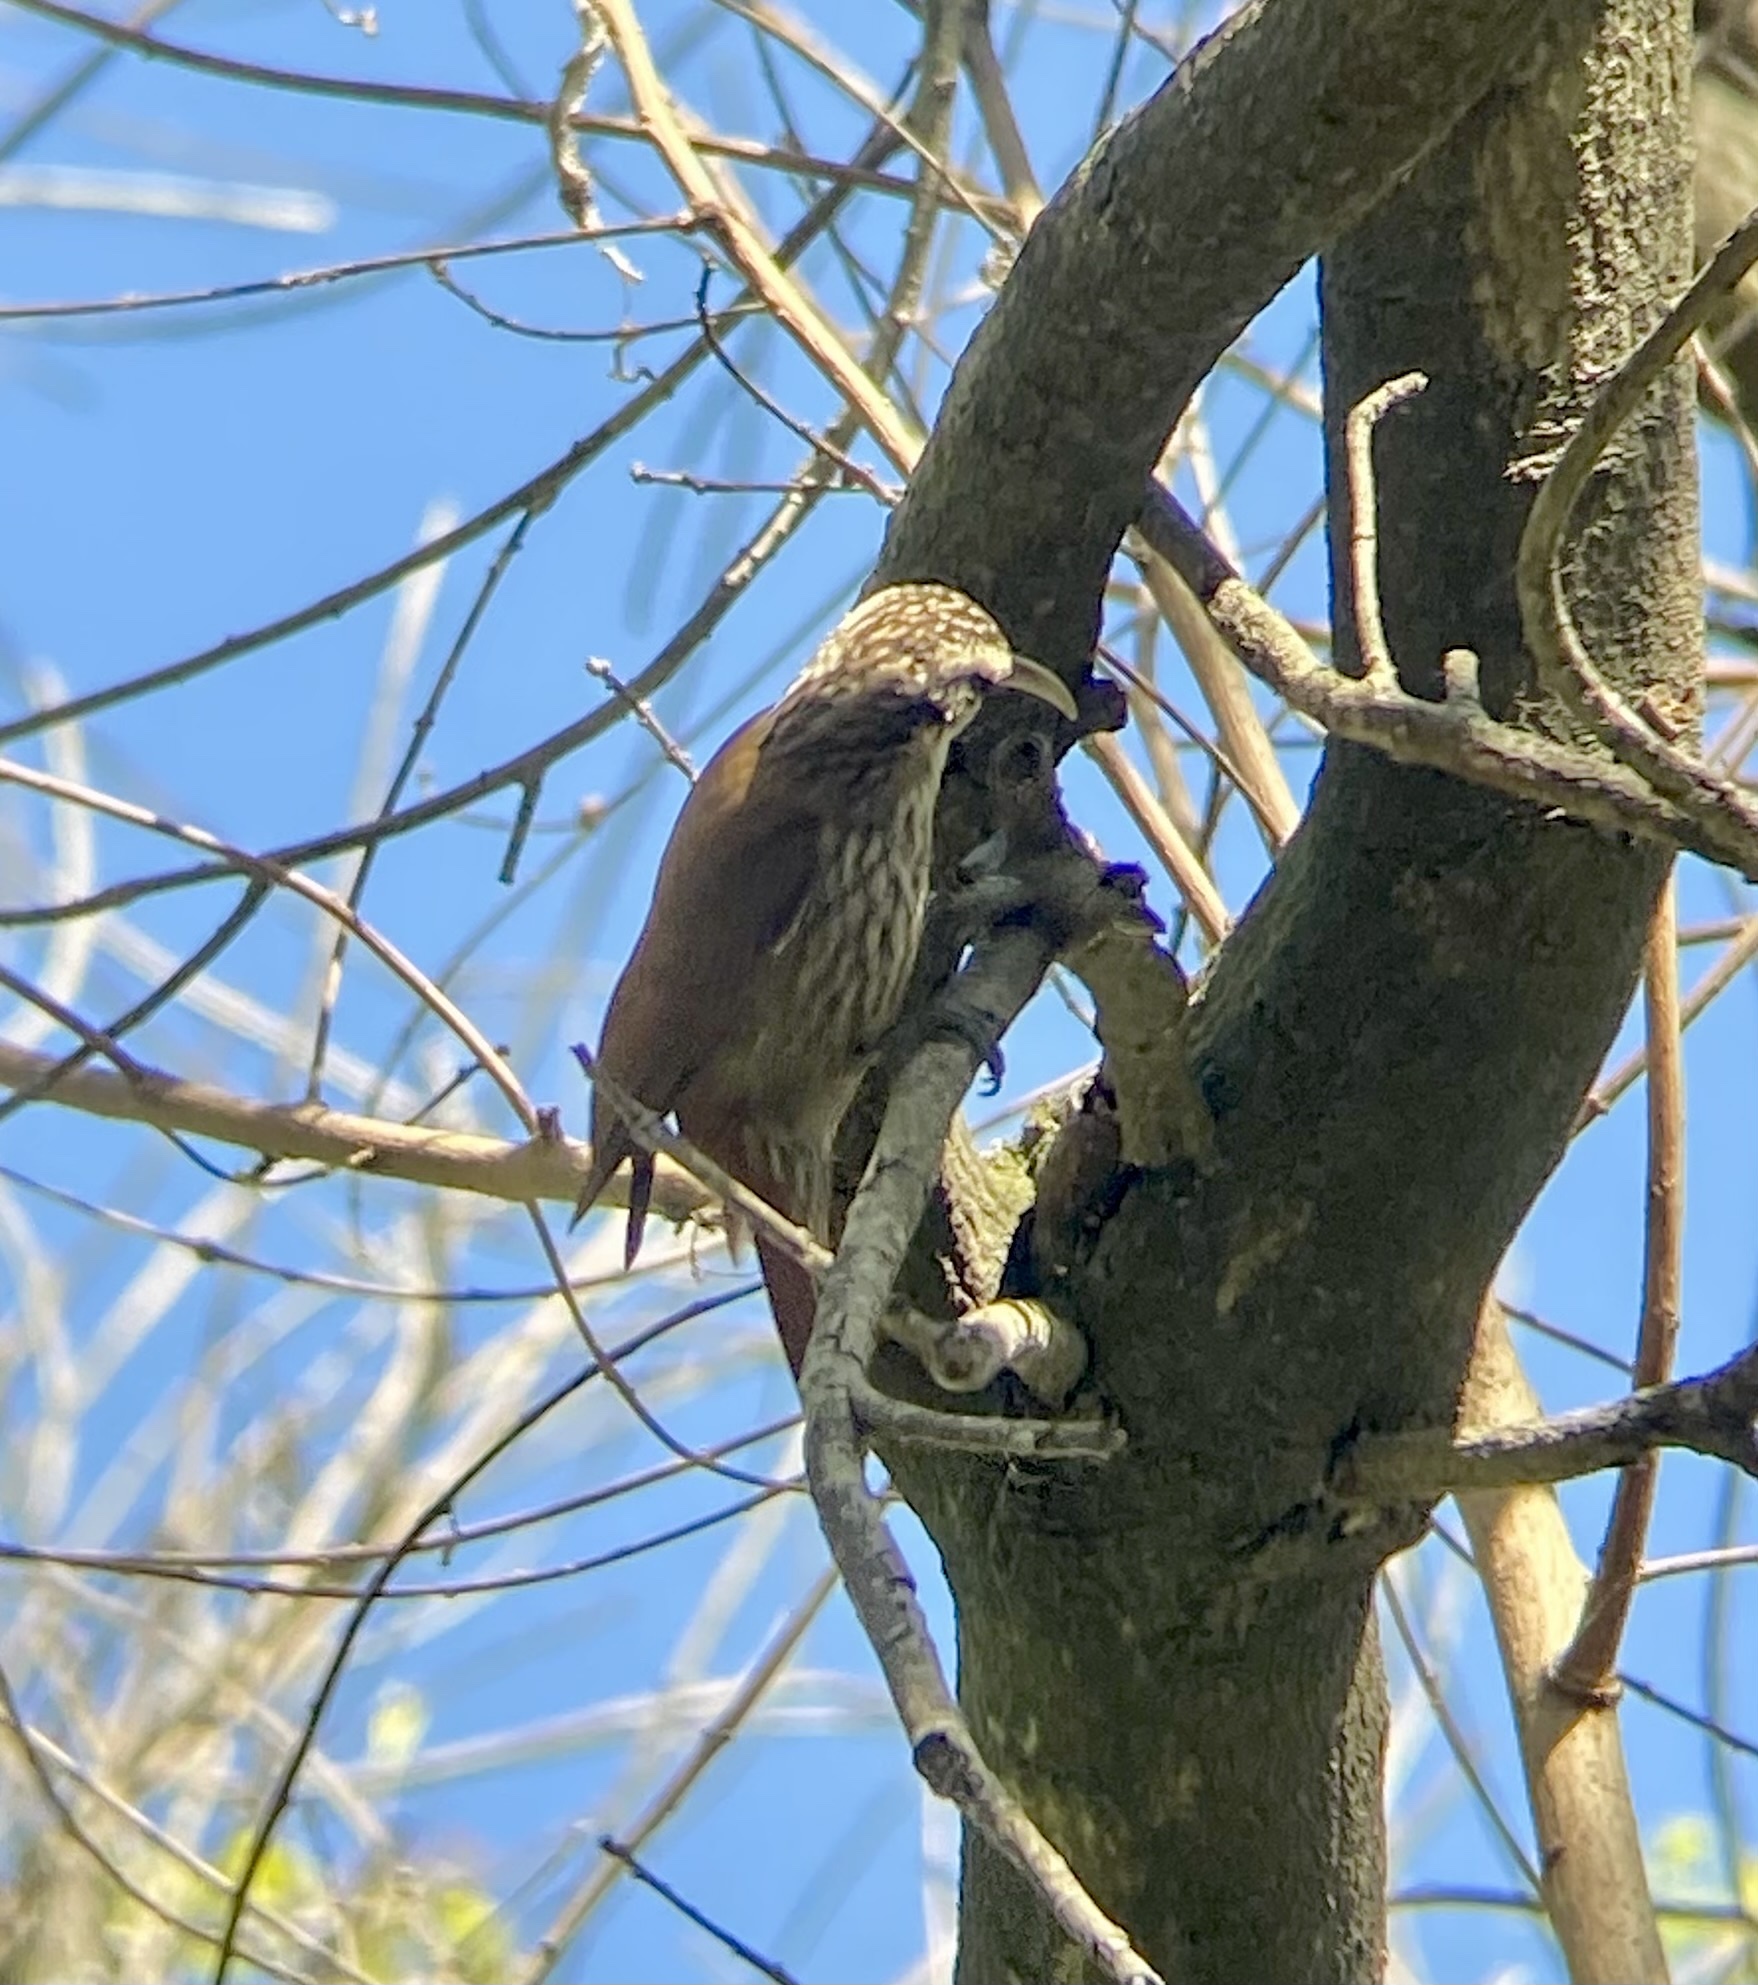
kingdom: Animalia
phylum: Chordata
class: Aves
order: Passeriformes
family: Furnariidae
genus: Lepidocolaptes
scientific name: Lepidocolaptes angustirostris
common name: Narrow-billed woodcreeper
